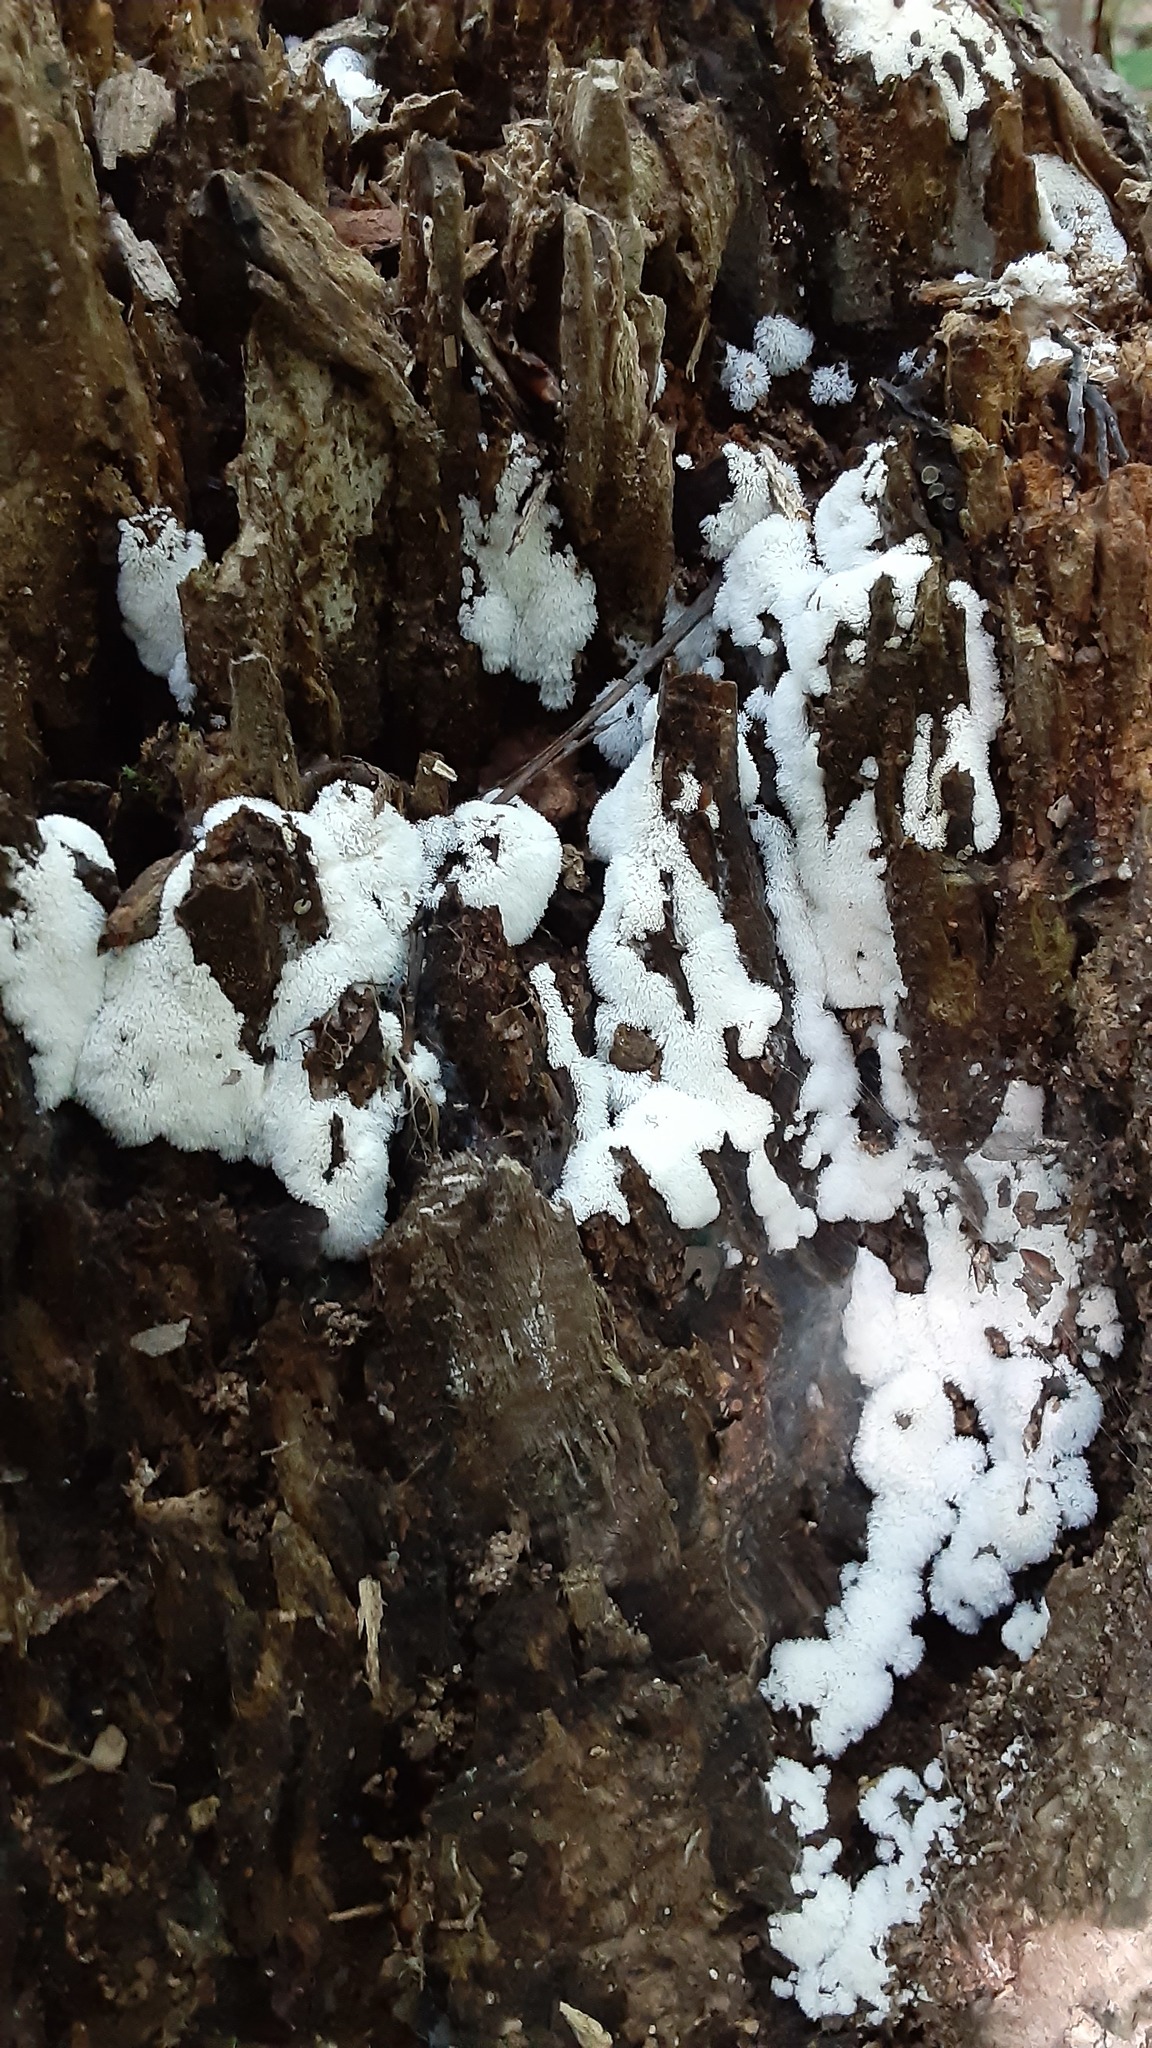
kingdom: Protozoa
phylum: Mycetozoa
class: Protosteliomycetes
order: Ceratiomyxales
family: Ceratiomyxaceae
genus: Ceratiomyxa
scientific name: Ceratiomyxa fruticulosa
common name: Honeycomb coral slime mold
